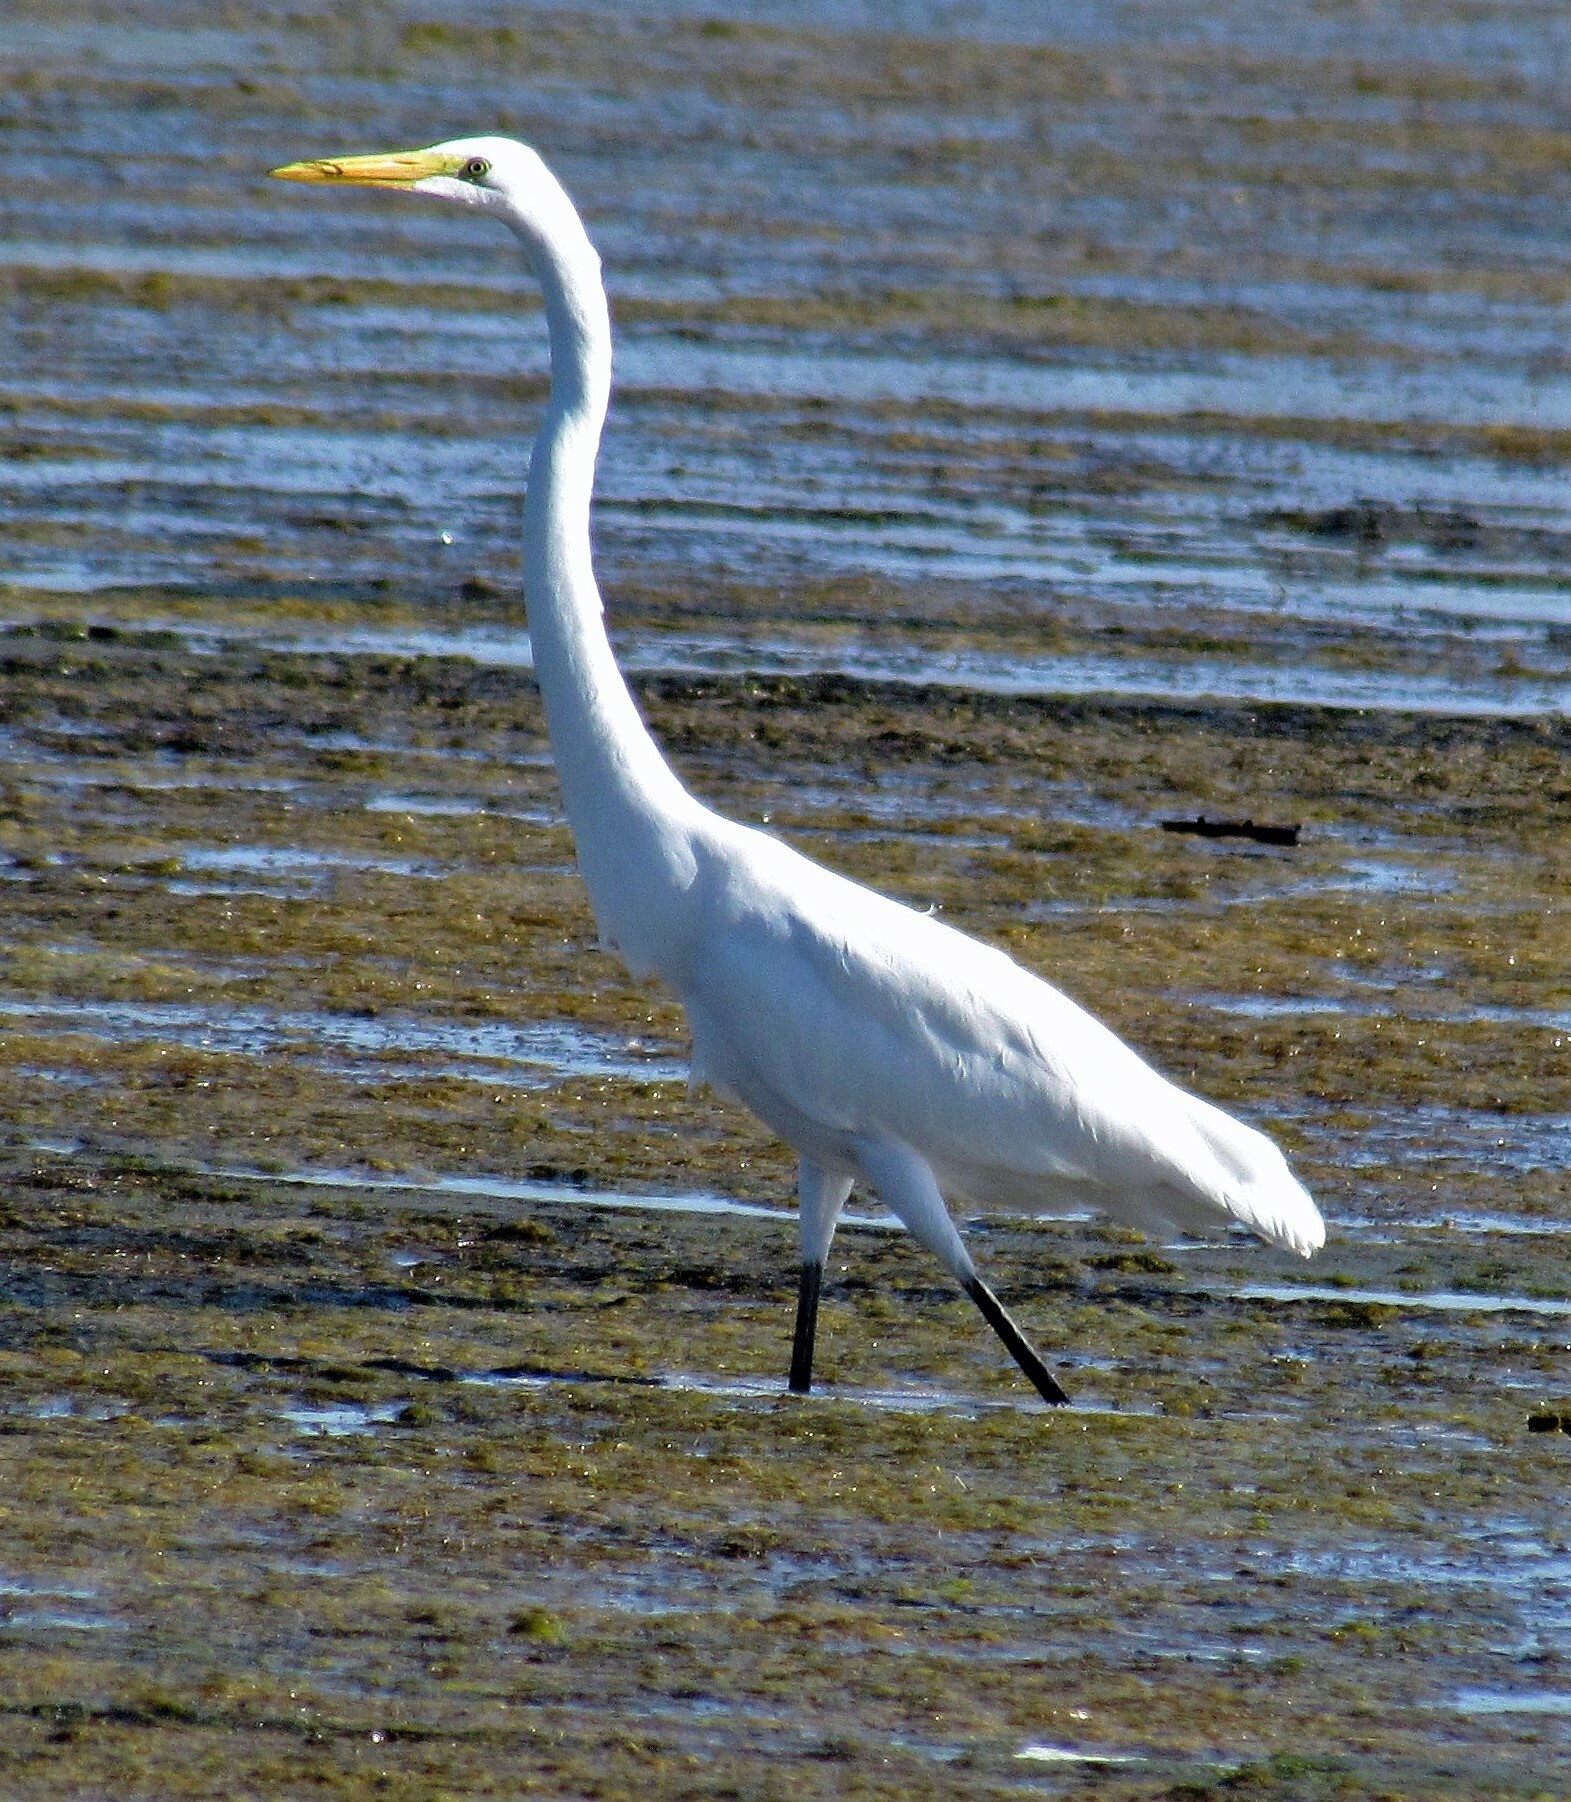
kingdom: Animalia
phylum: Chordata
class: Aves
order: Pelecaniformes
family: Ardeidae
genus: Ardea
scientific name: Ardea alba
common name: Great egret
